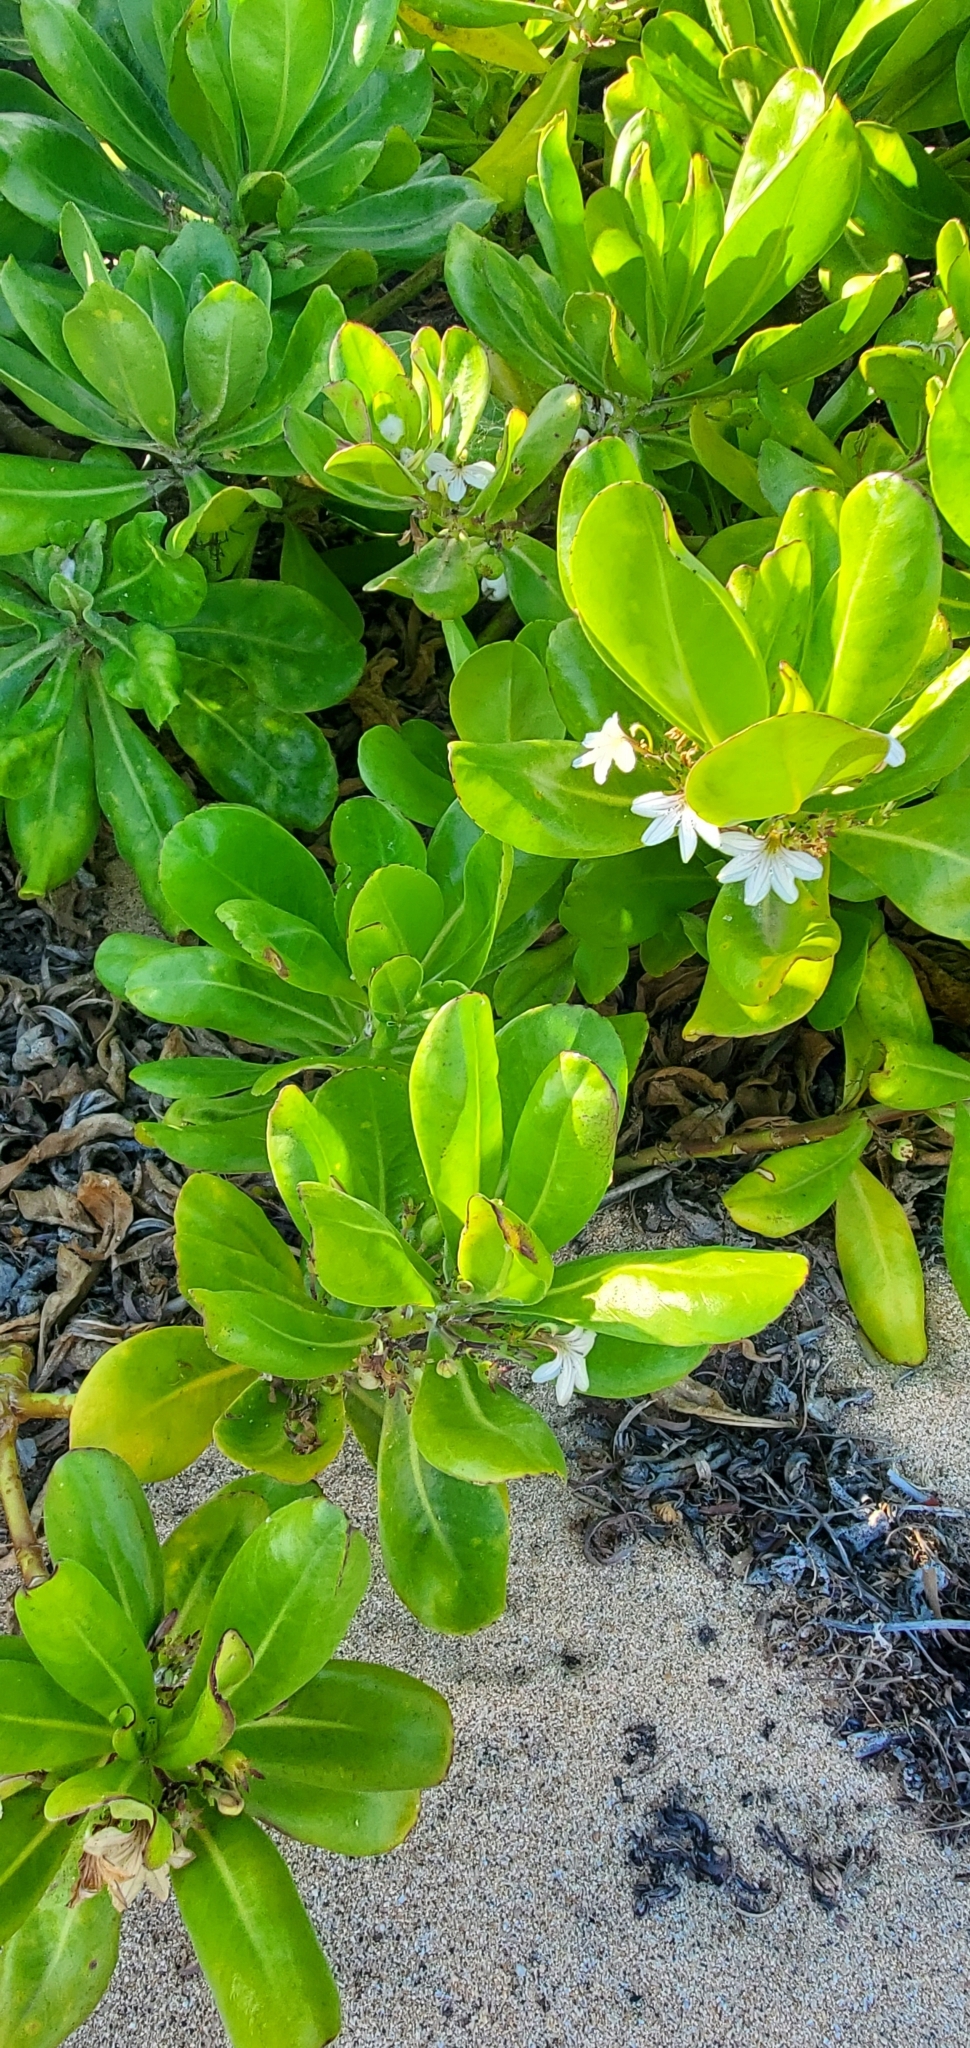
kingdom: Plantae
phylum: Tracheophyta
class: Magnoliopsida
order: Asterales
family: Goodeniaceae
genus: Scaevola
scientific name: Scaevola taccada
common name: Sea lettucetree
